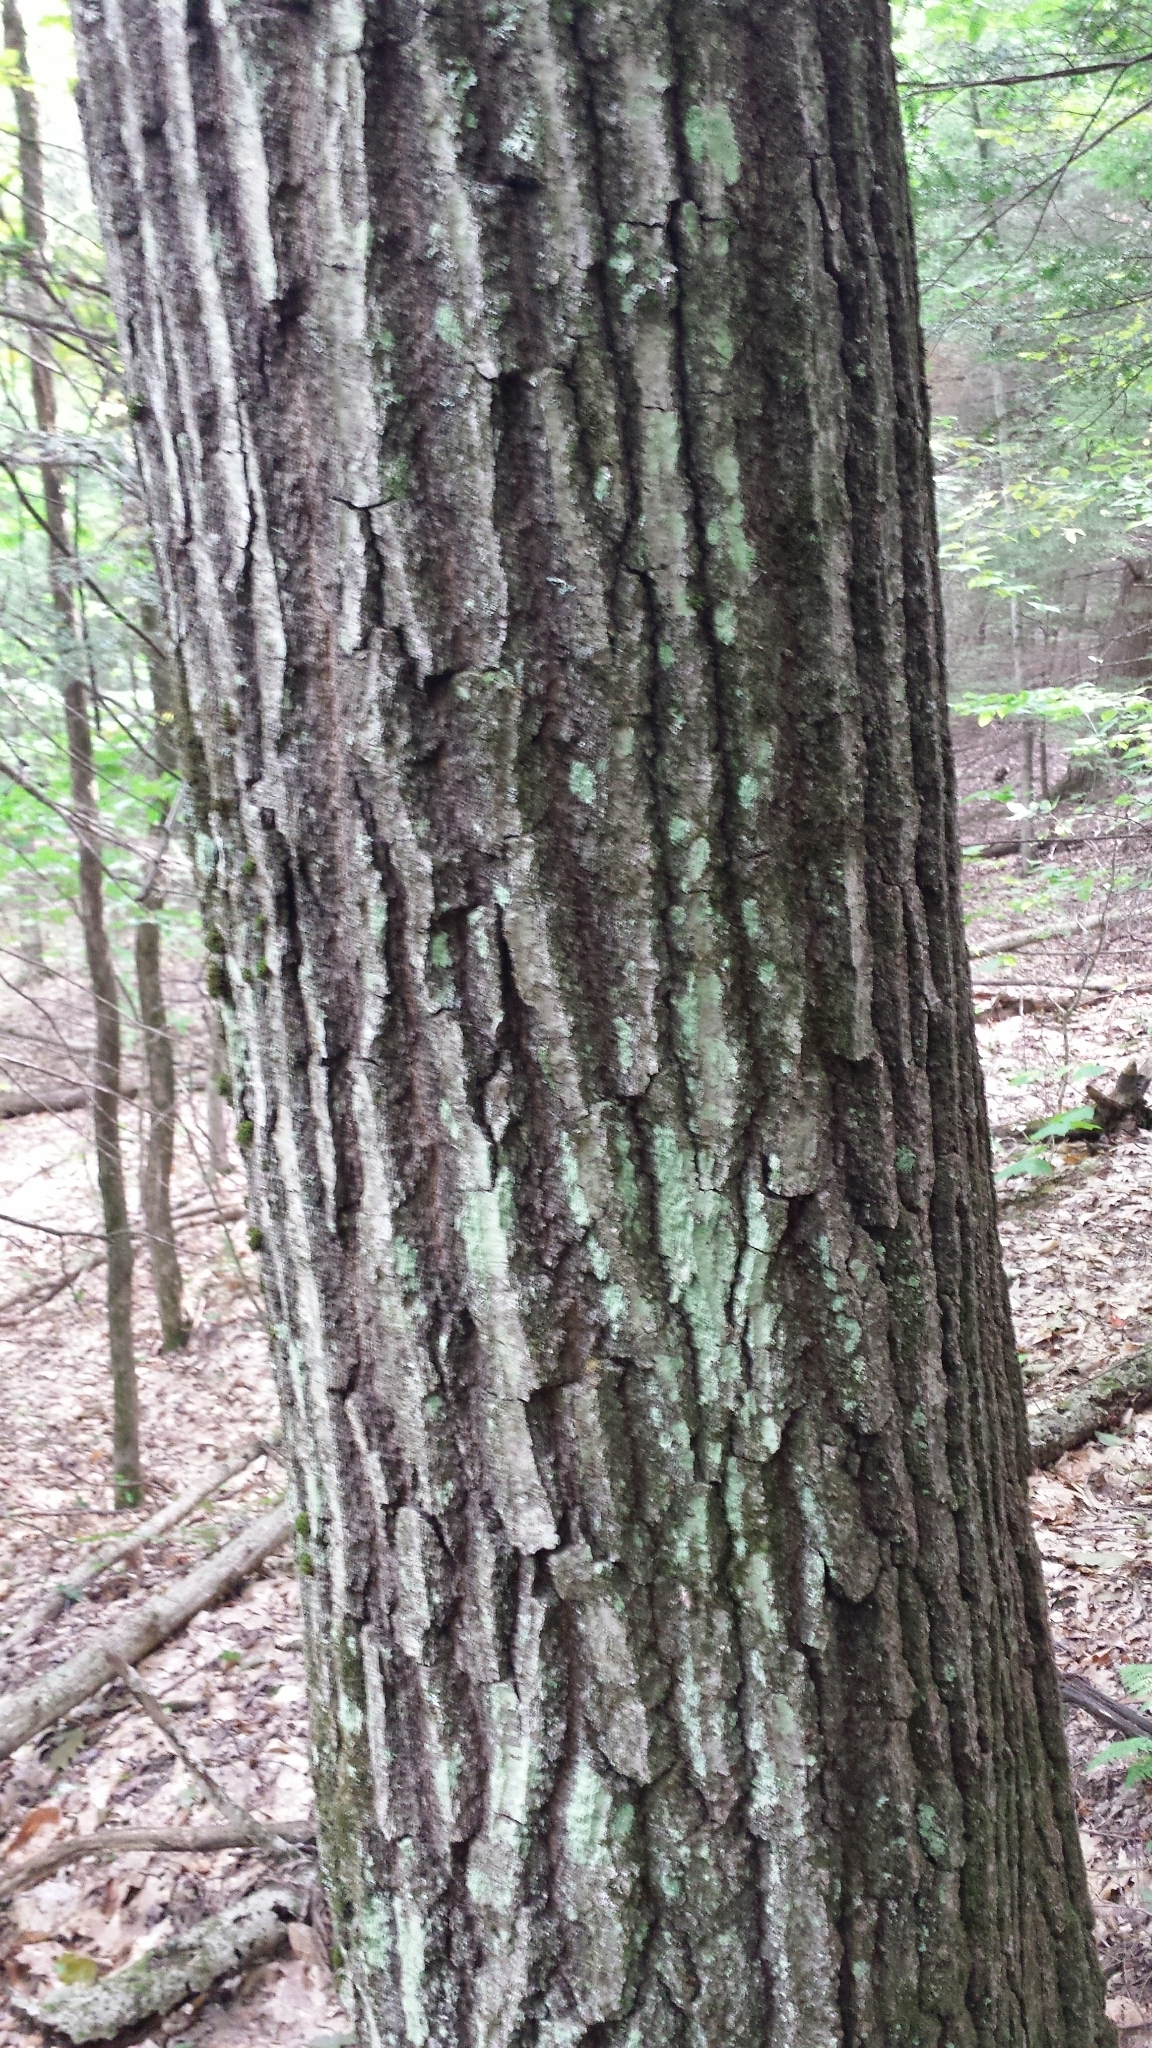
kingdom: Plantae
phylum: Tracheophyta
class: Magnoliopsida
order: Fagales
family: Fagaceae
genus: Quercus
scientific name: Quercus rubra
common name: Red oak
